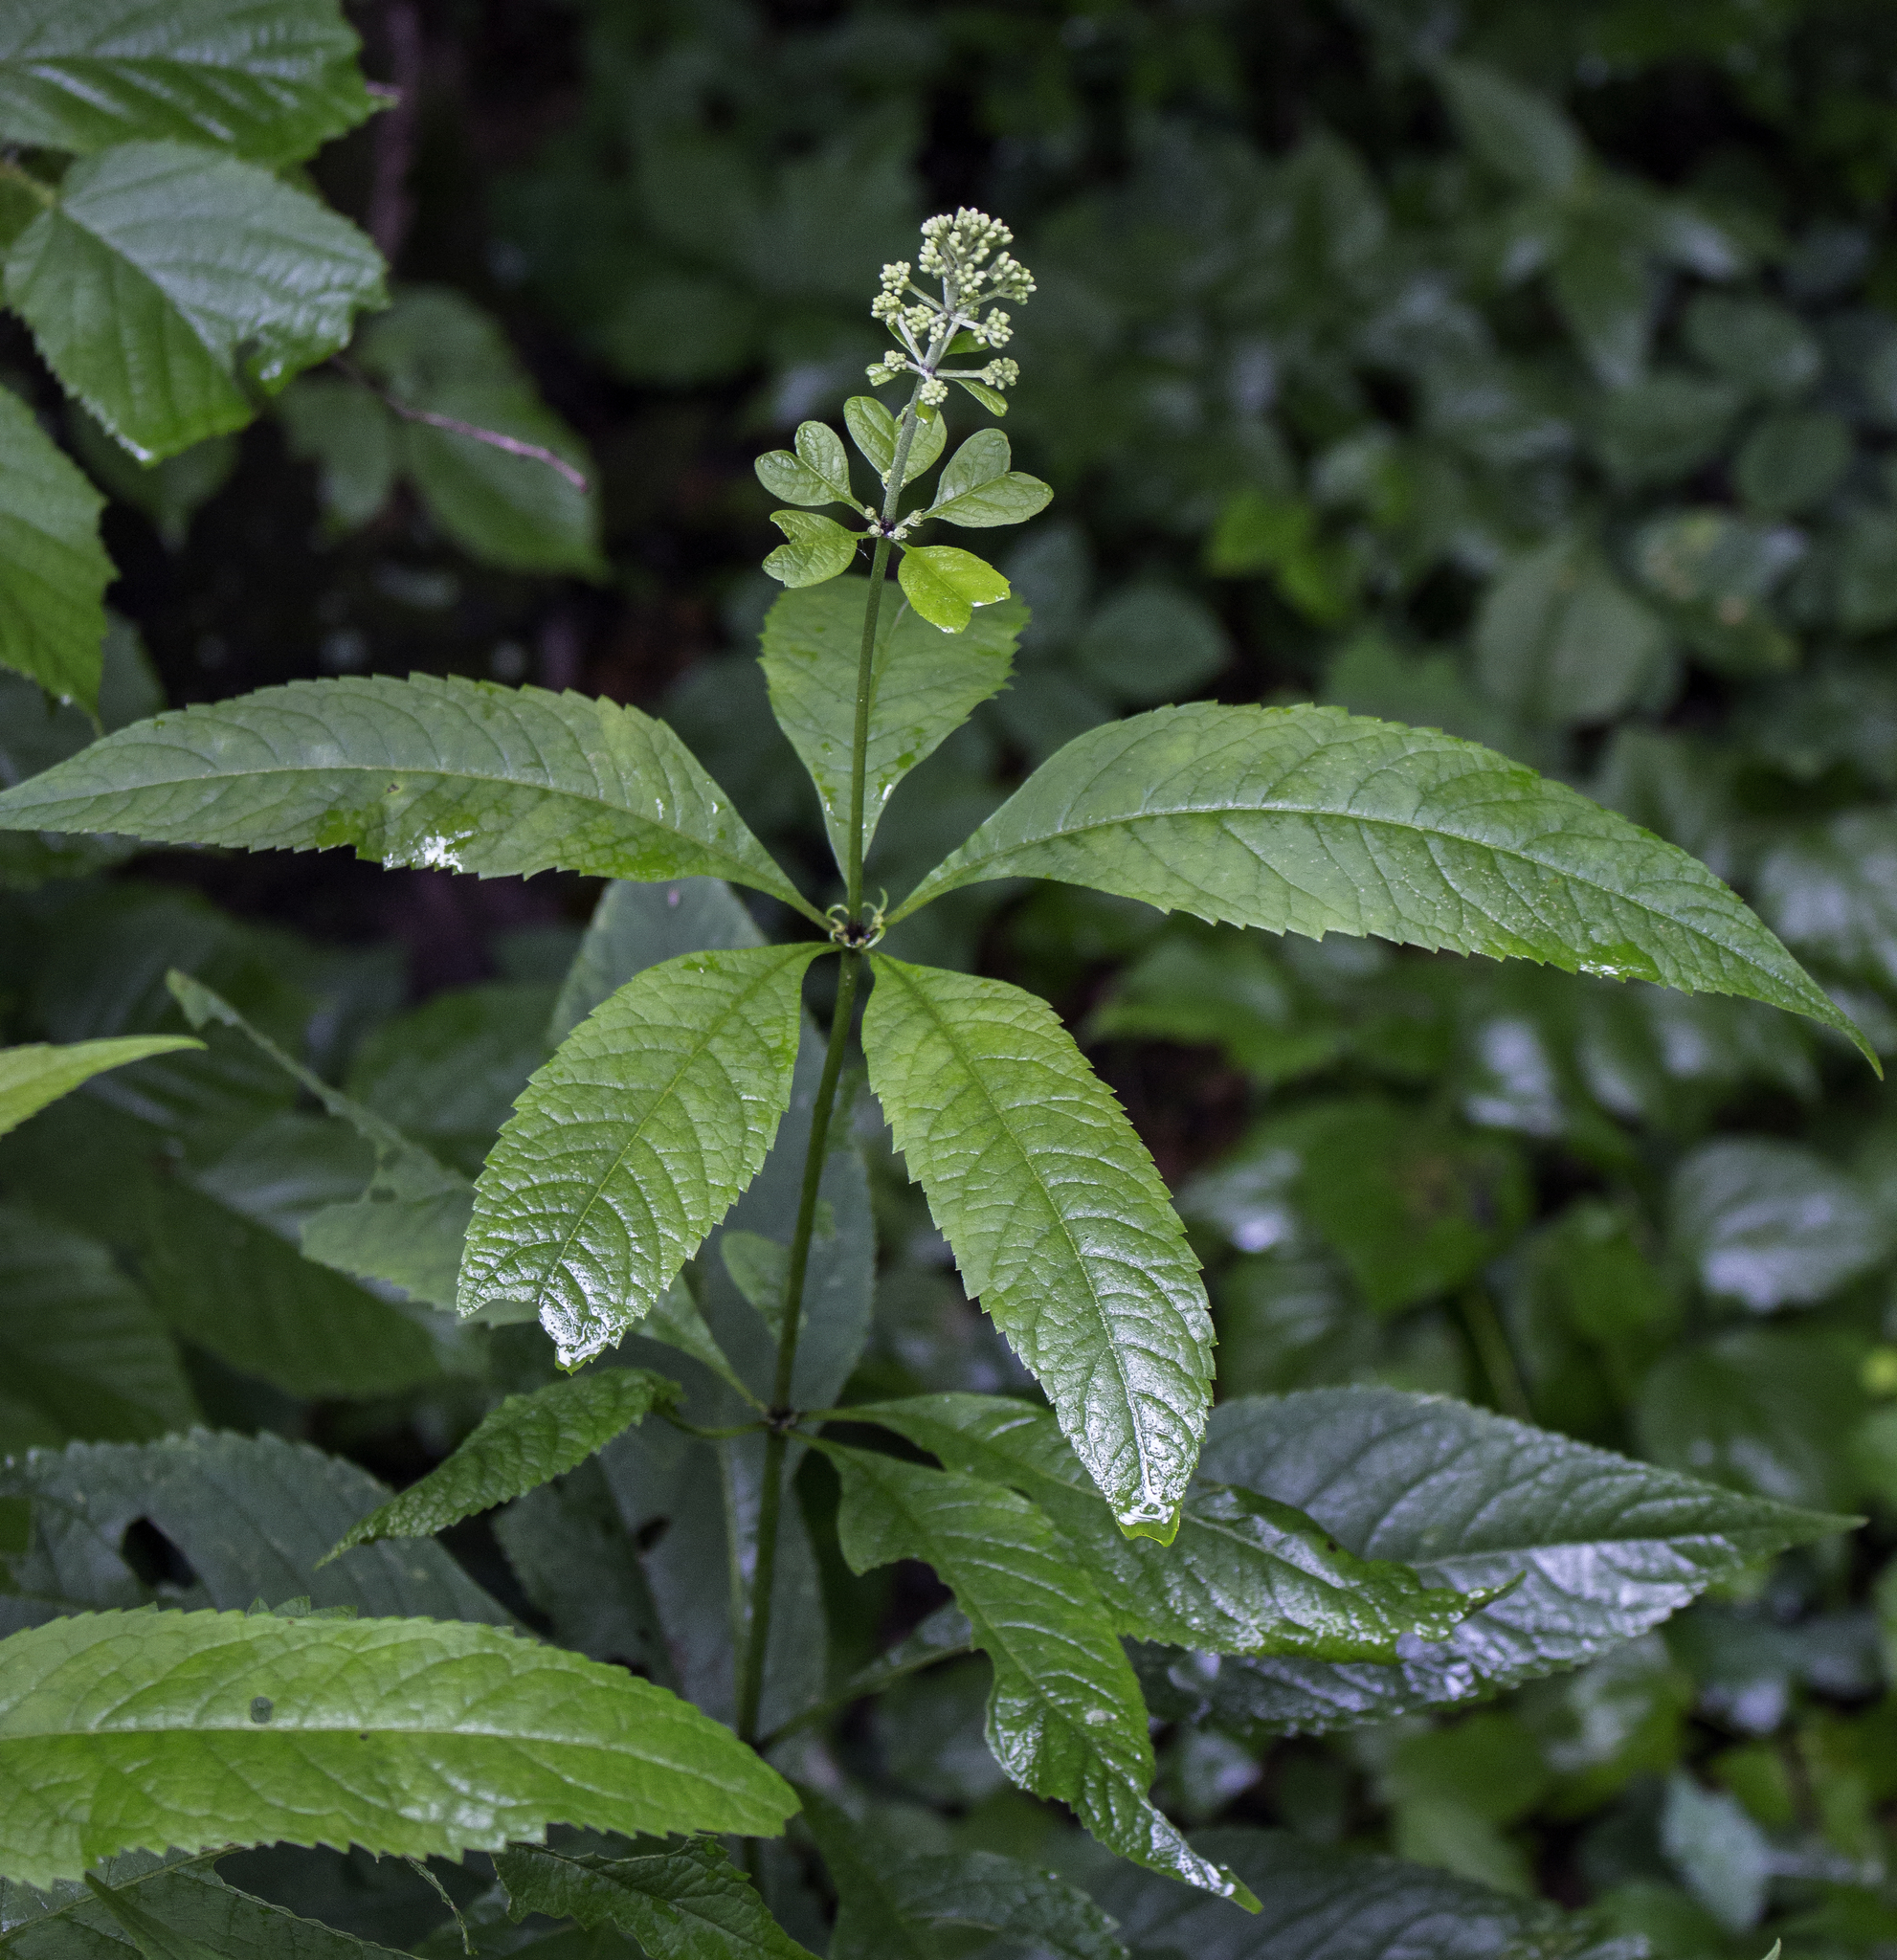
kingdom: Plantae
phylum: Tracheophyta
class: Magnoliopsida
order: Asterales
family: Asteraceae
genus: Eutrochium
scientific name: Eutrochium purpureum
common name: Gravelroot
